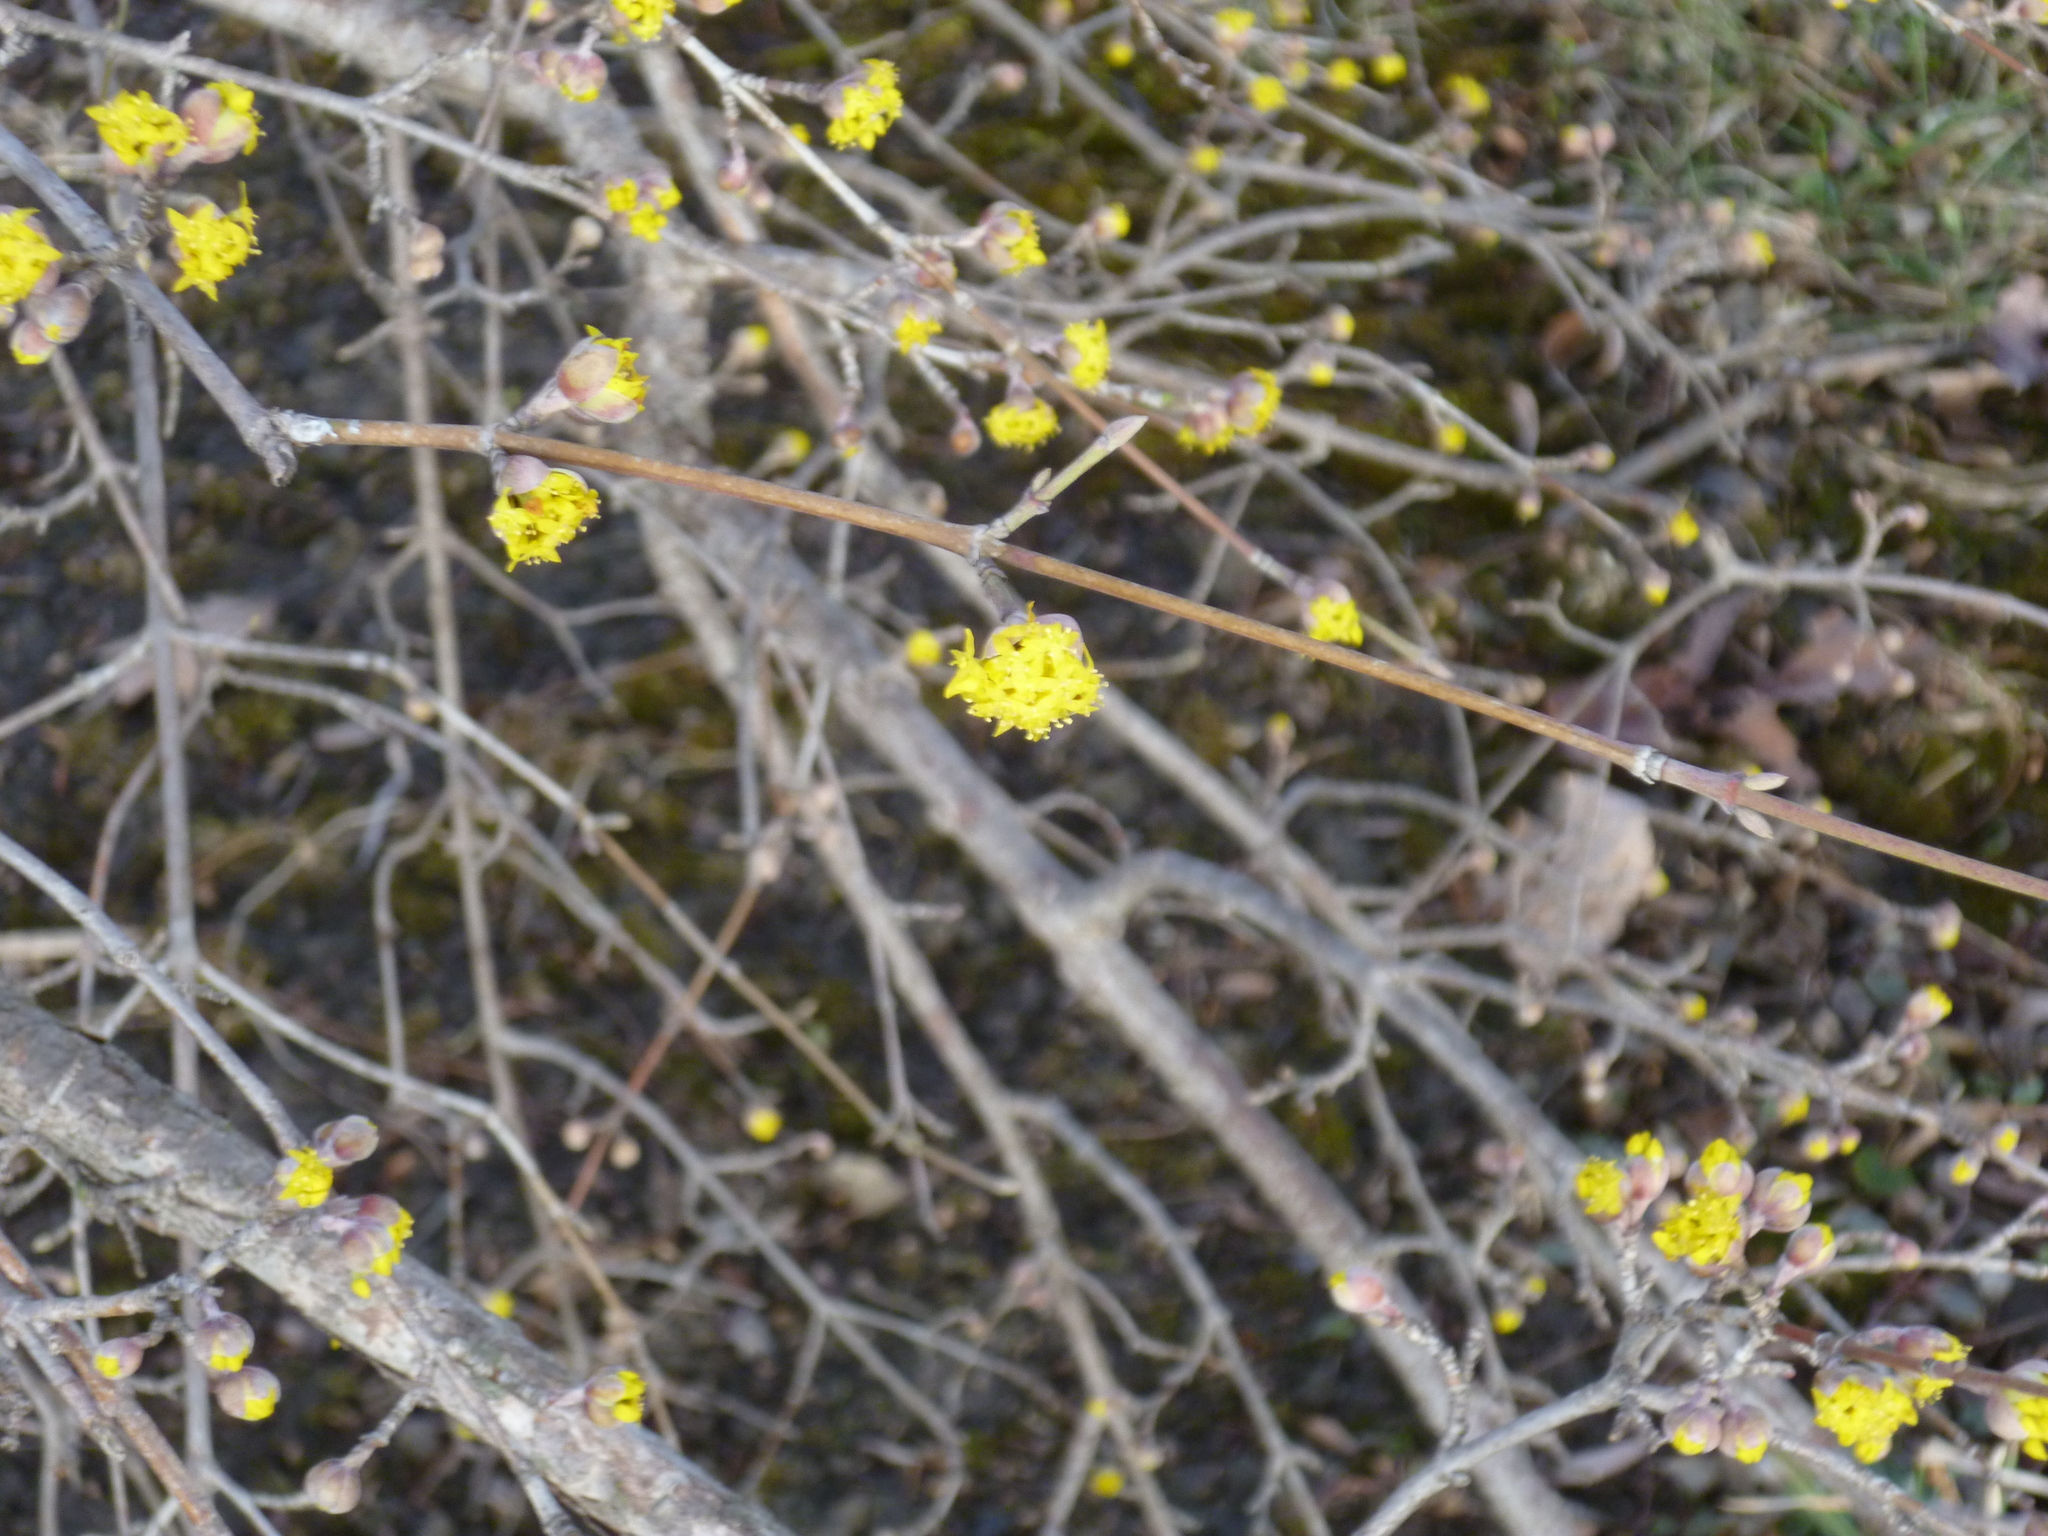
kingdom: Plantae
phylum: Tracheophyta
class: Magnoliopsida
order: Cornales
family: Cornaceae
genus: Cornus
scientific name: Cornus mas
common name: Cornelian-cherry
